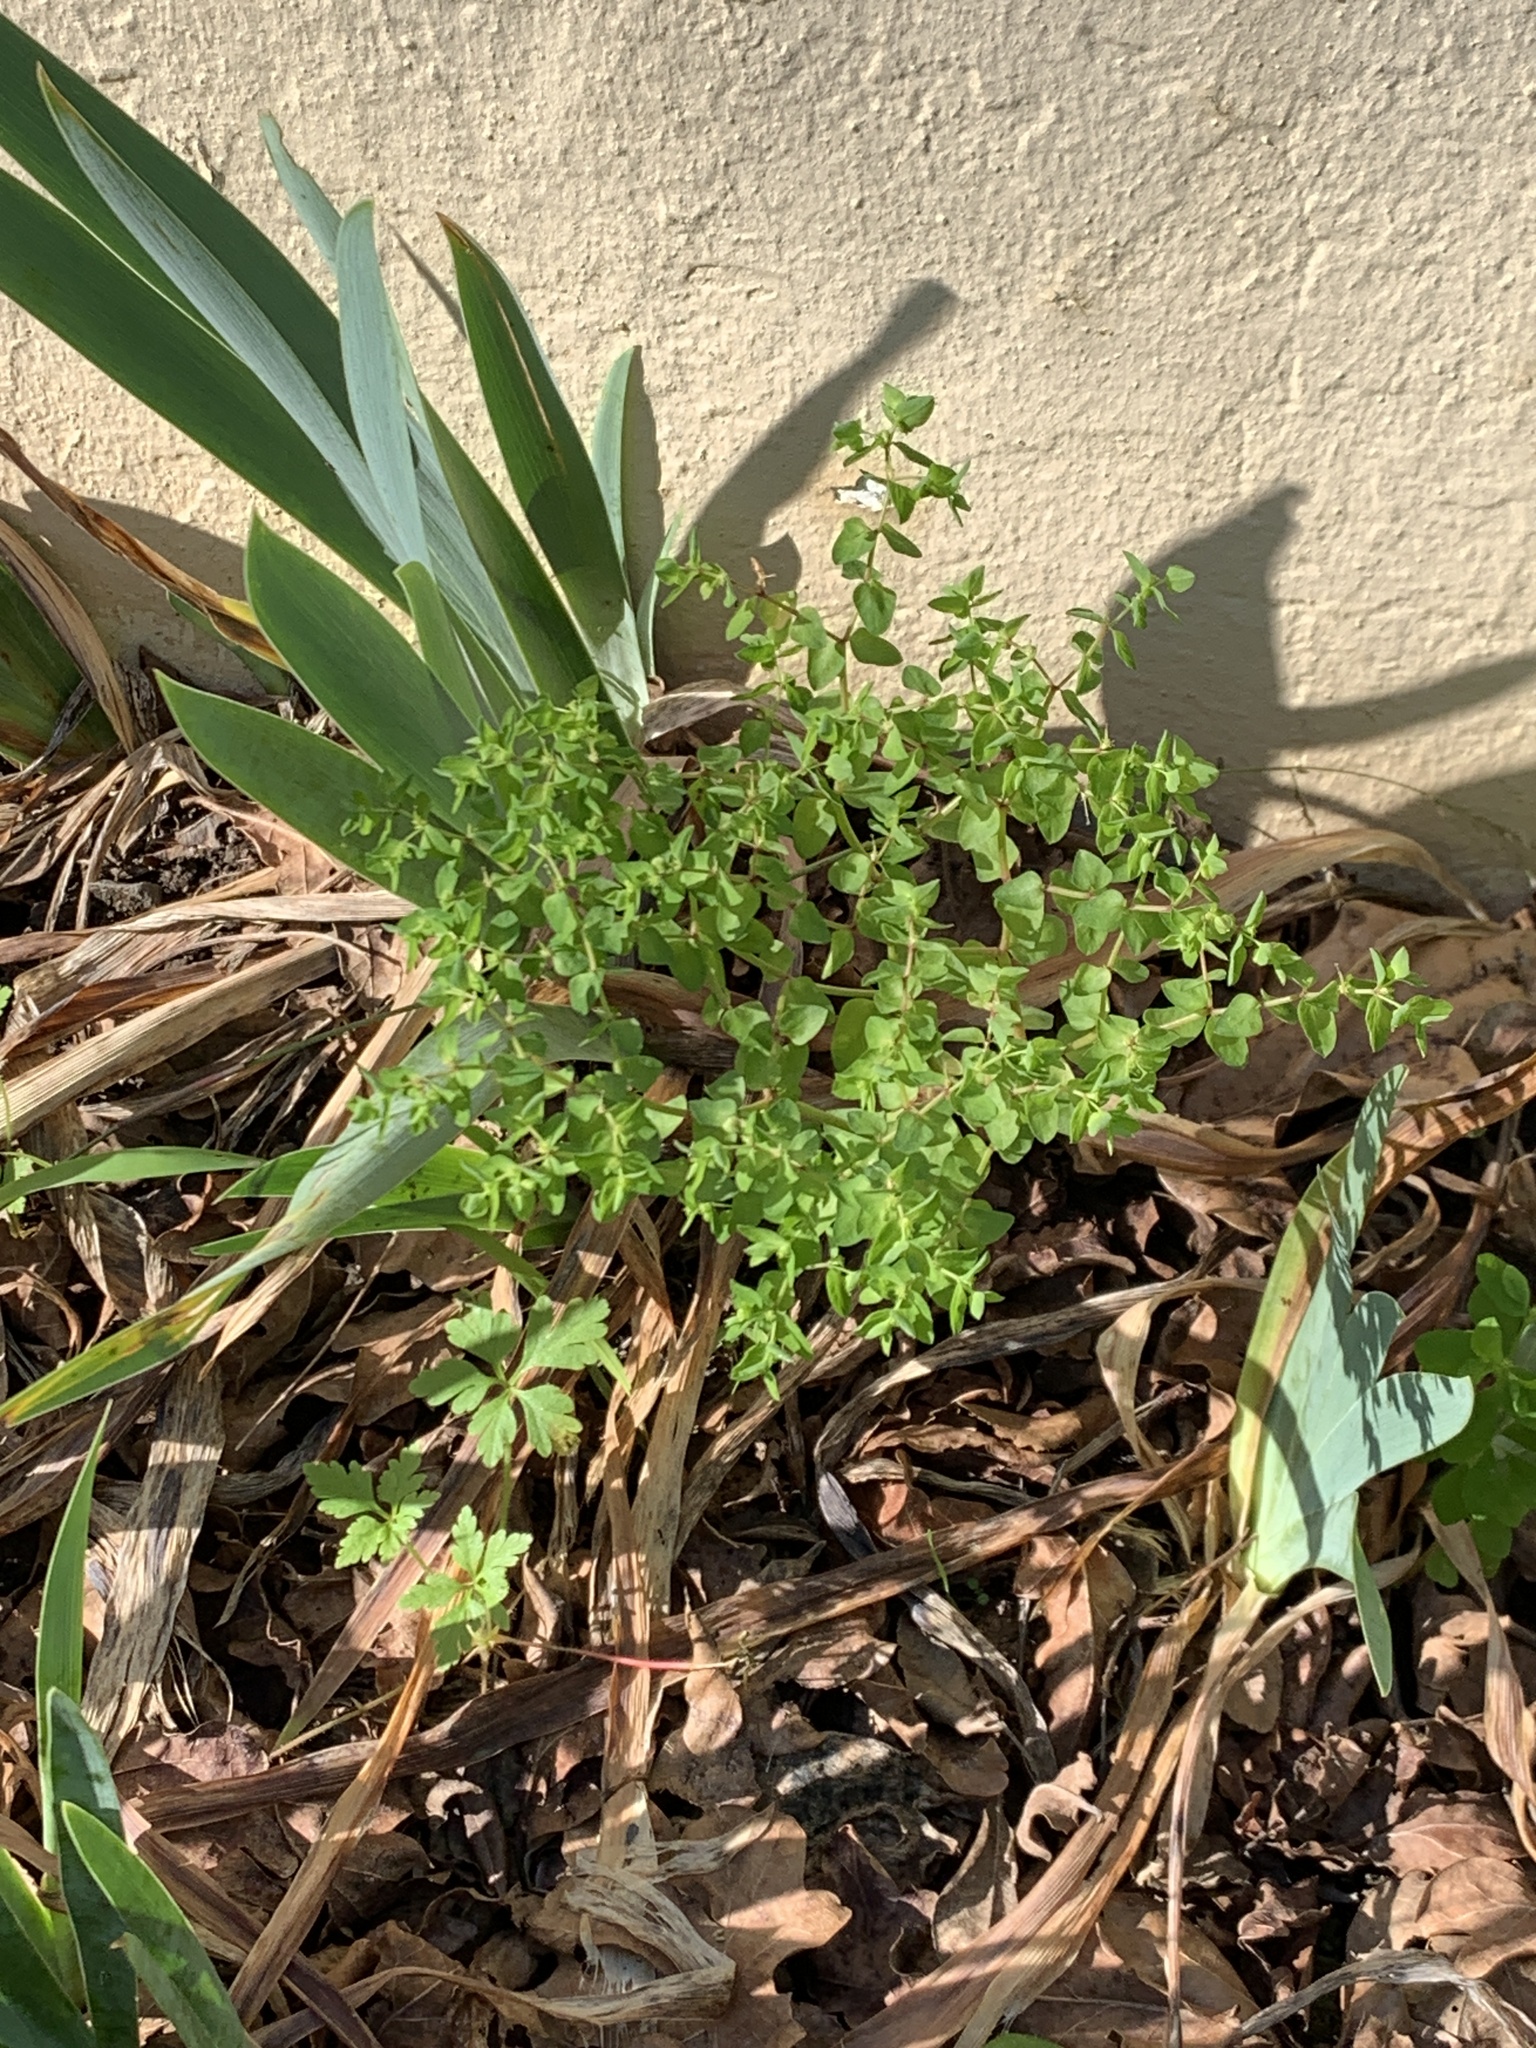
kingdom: Plantae
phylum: Tracheophyta
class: Magnoliopsida
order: Malpighiales
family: Euphorbiaceae
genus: Euphorbia
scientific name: Euphorbia peplus
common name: Petty spurge
